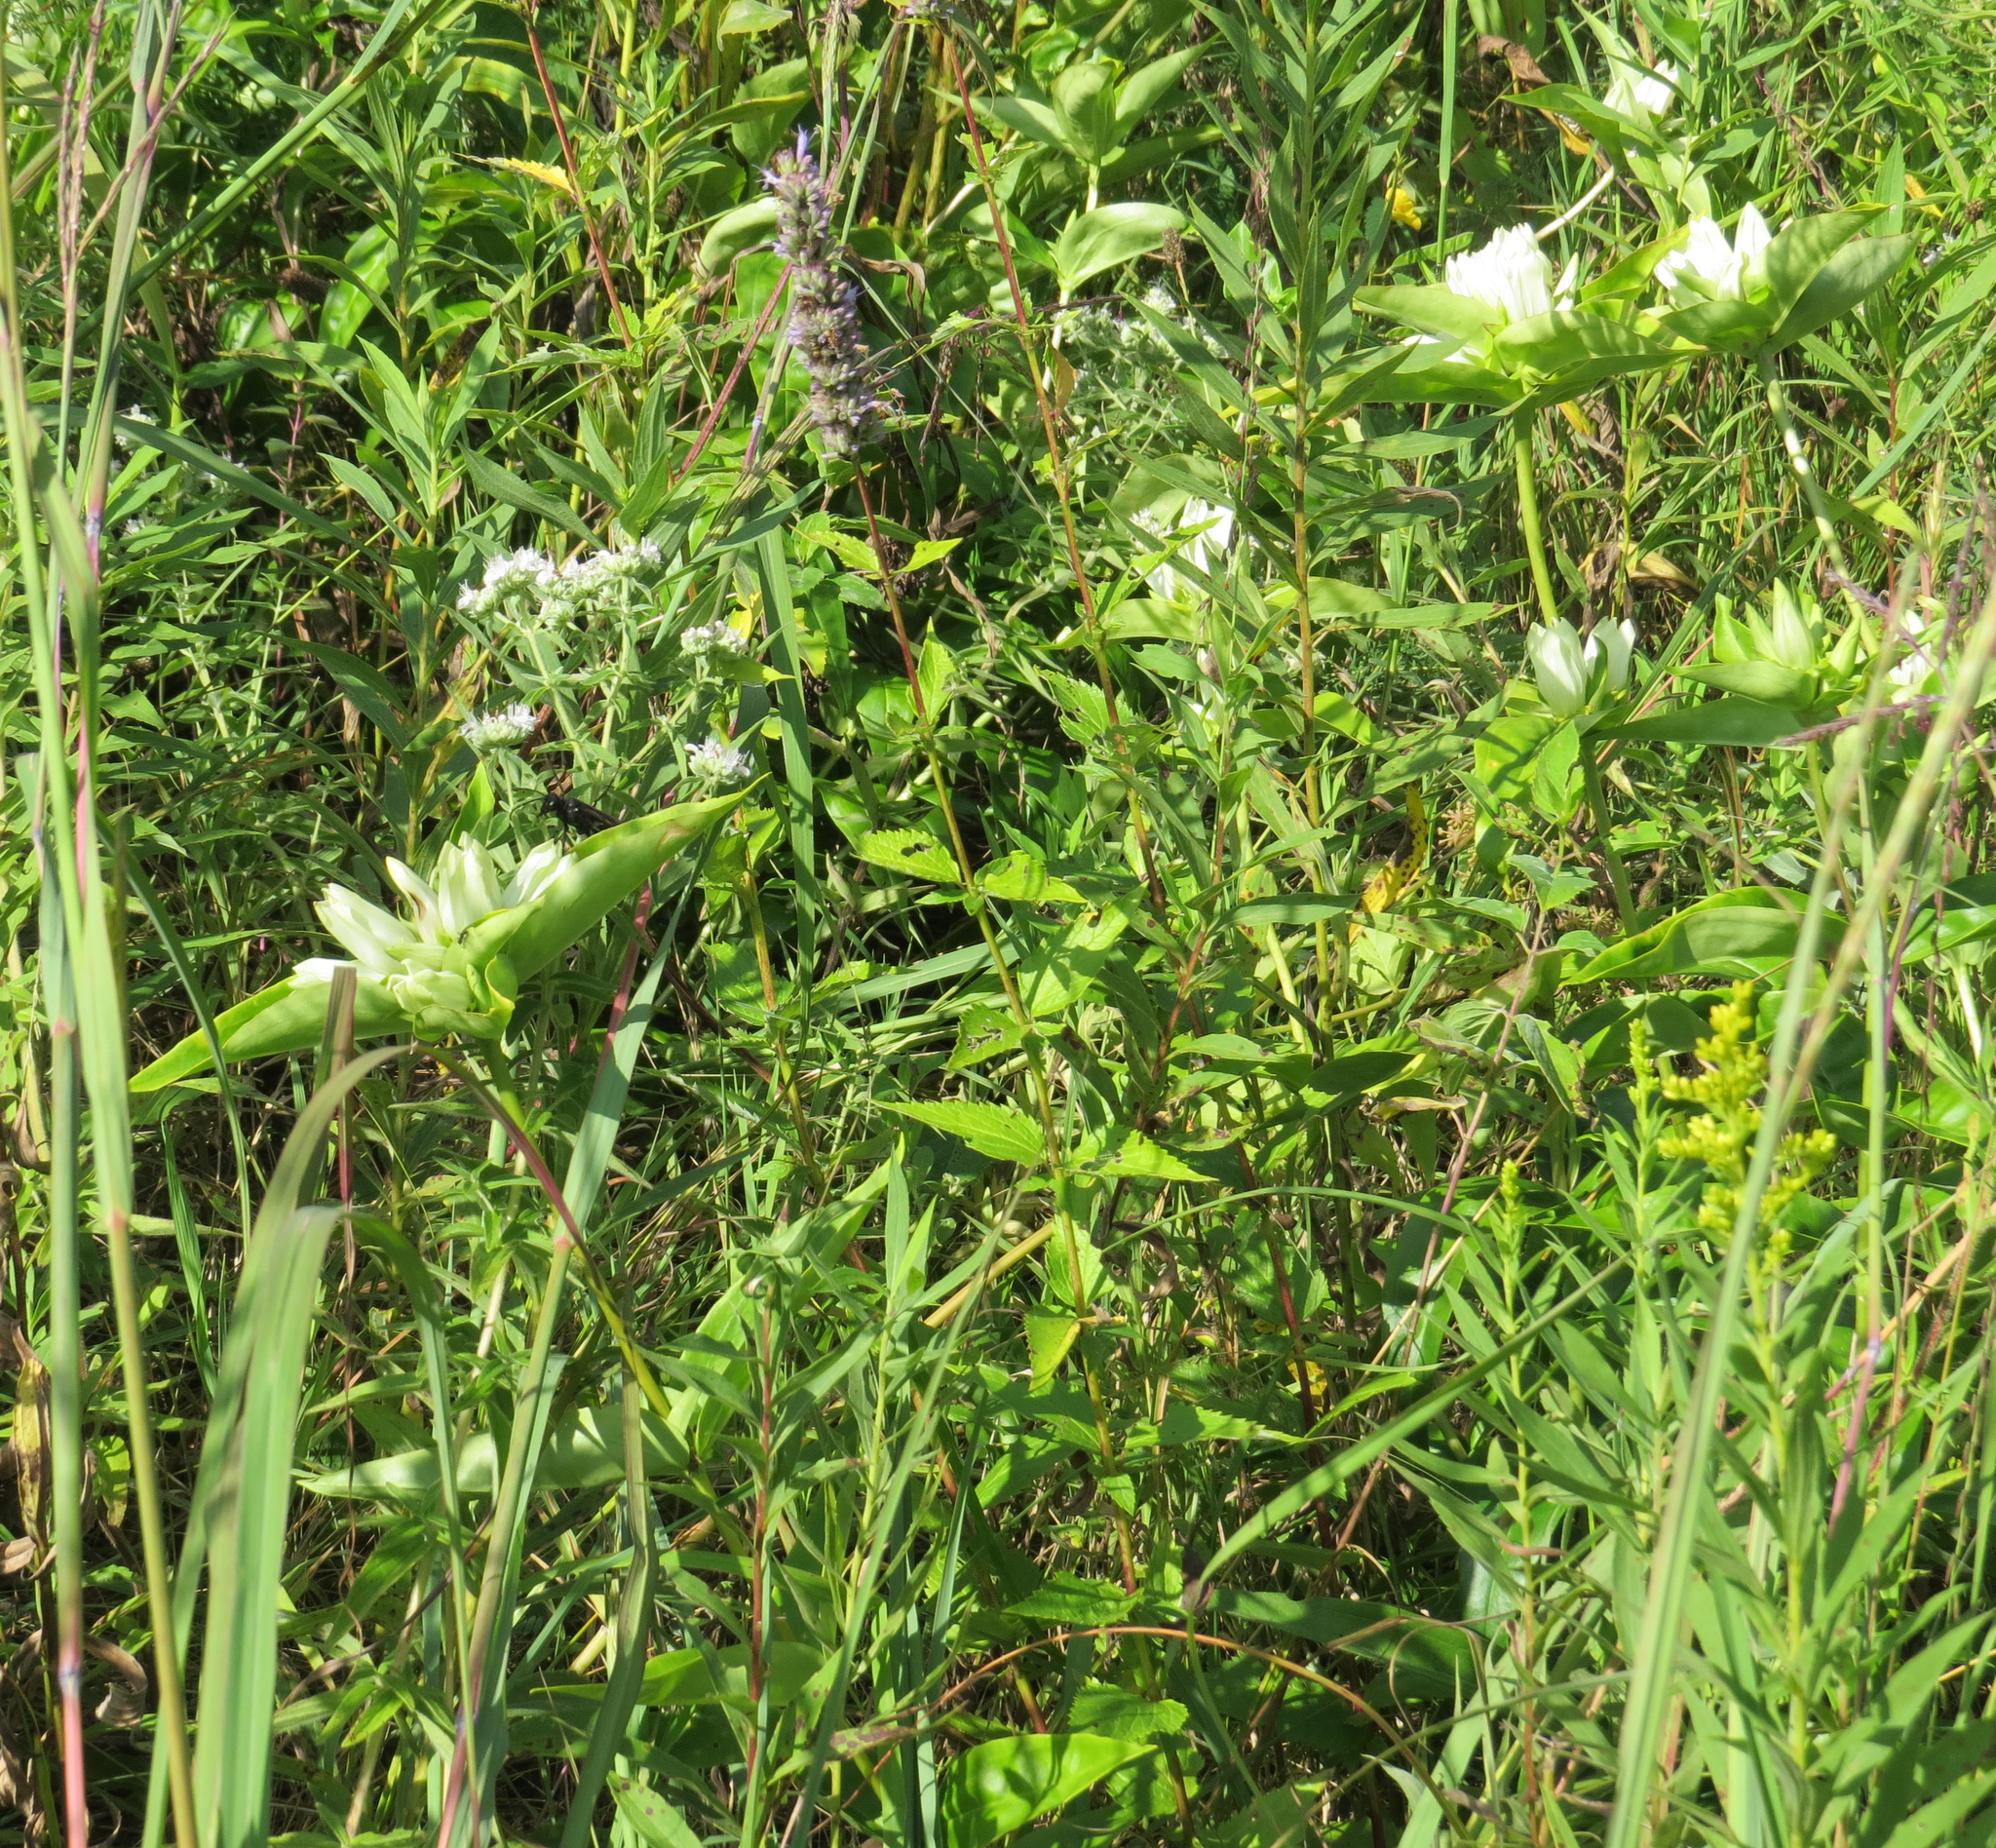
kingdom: Plantae
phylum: Tracheophyta
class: Magnoliopsida
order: Gentianales
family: Gentianaceae
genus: Gentiana
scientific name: Gentiana alba
